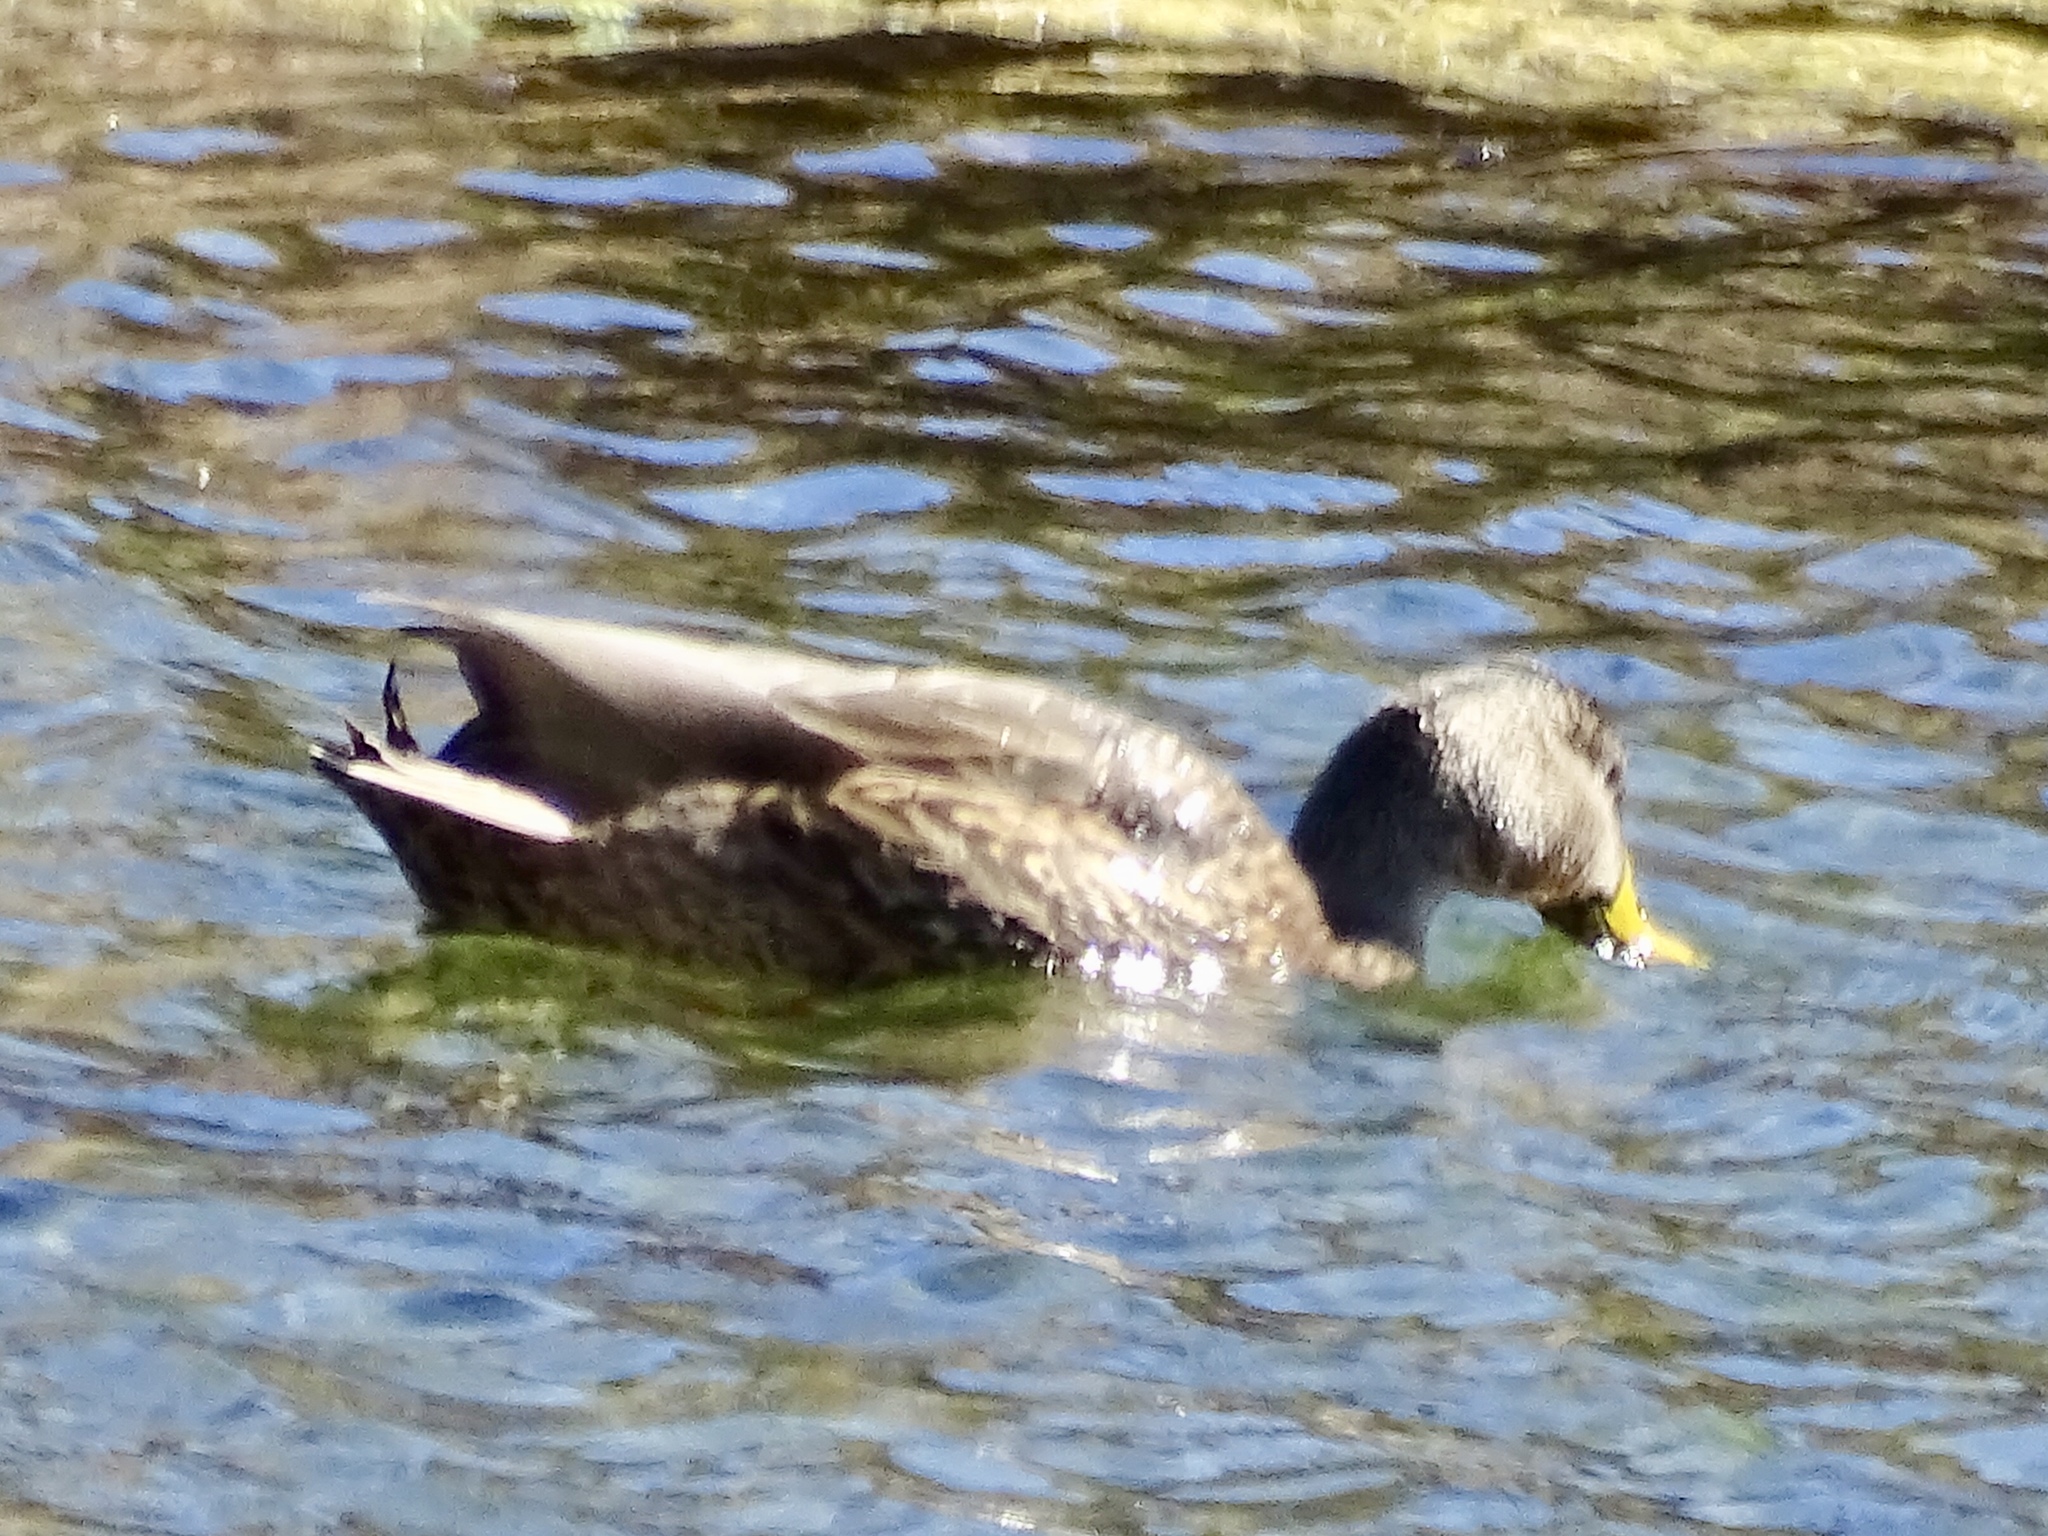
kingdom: Animalia
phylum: Chordata
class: Aves
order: Anseriformes
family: Anatidae
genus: Anas
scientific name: Anas platyrhynchos
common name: Mallard
